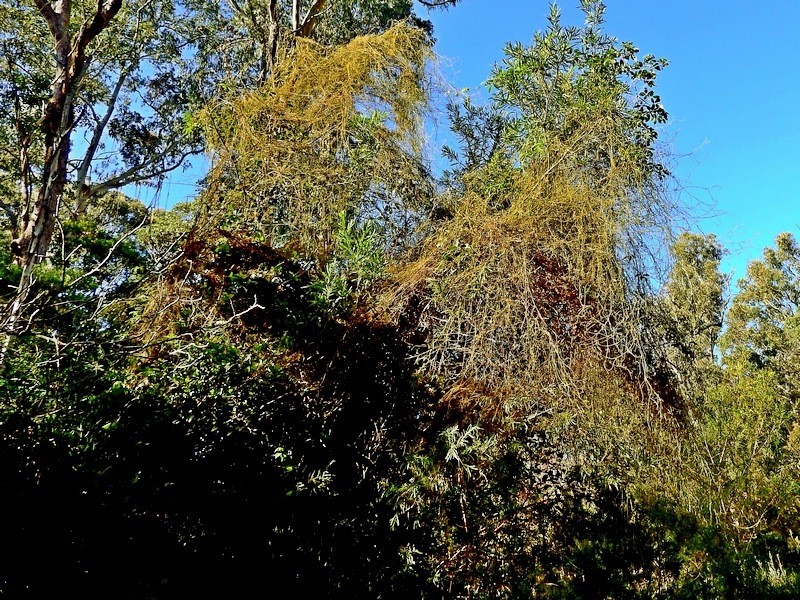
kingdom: Plantae
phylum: Tracheophyta
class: Magnoliopsida
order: Laurales
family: Lauraceae
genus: Cassytha
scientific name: Cassytha pubescens
